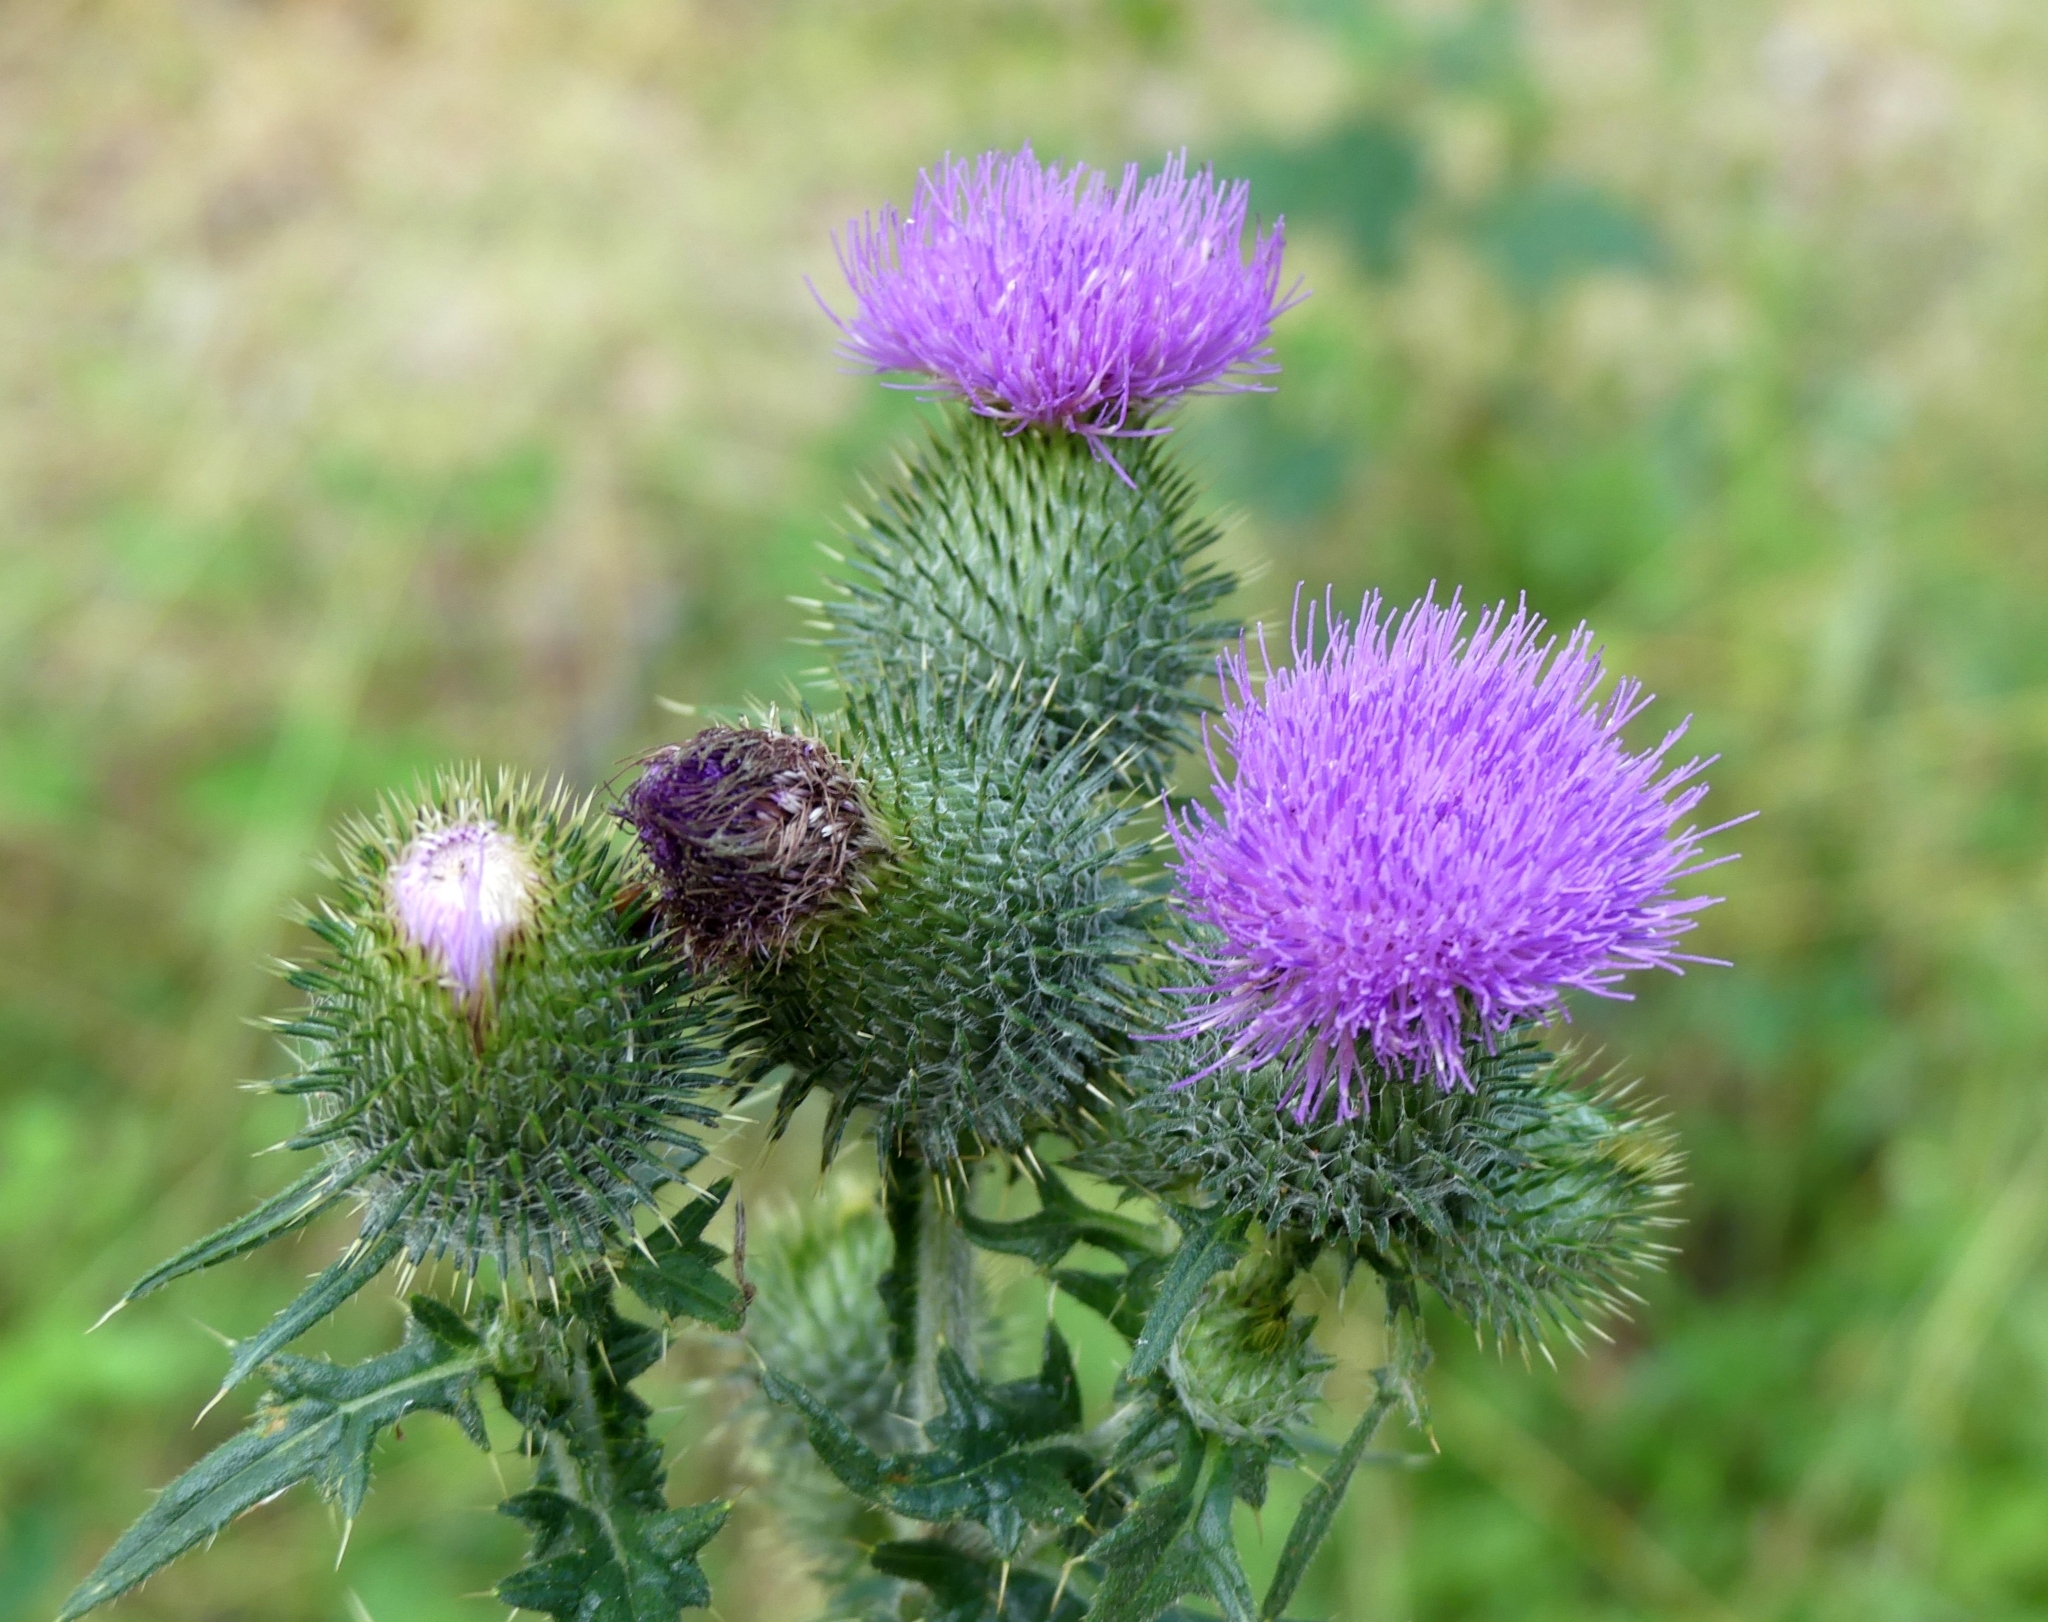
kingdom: Plantae
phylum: Tracheophyta
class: Magnoliopsida
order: Asterales
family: Asteraceae
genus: Cirsium
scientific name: Cirsium vulgare
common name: Bull thistle
